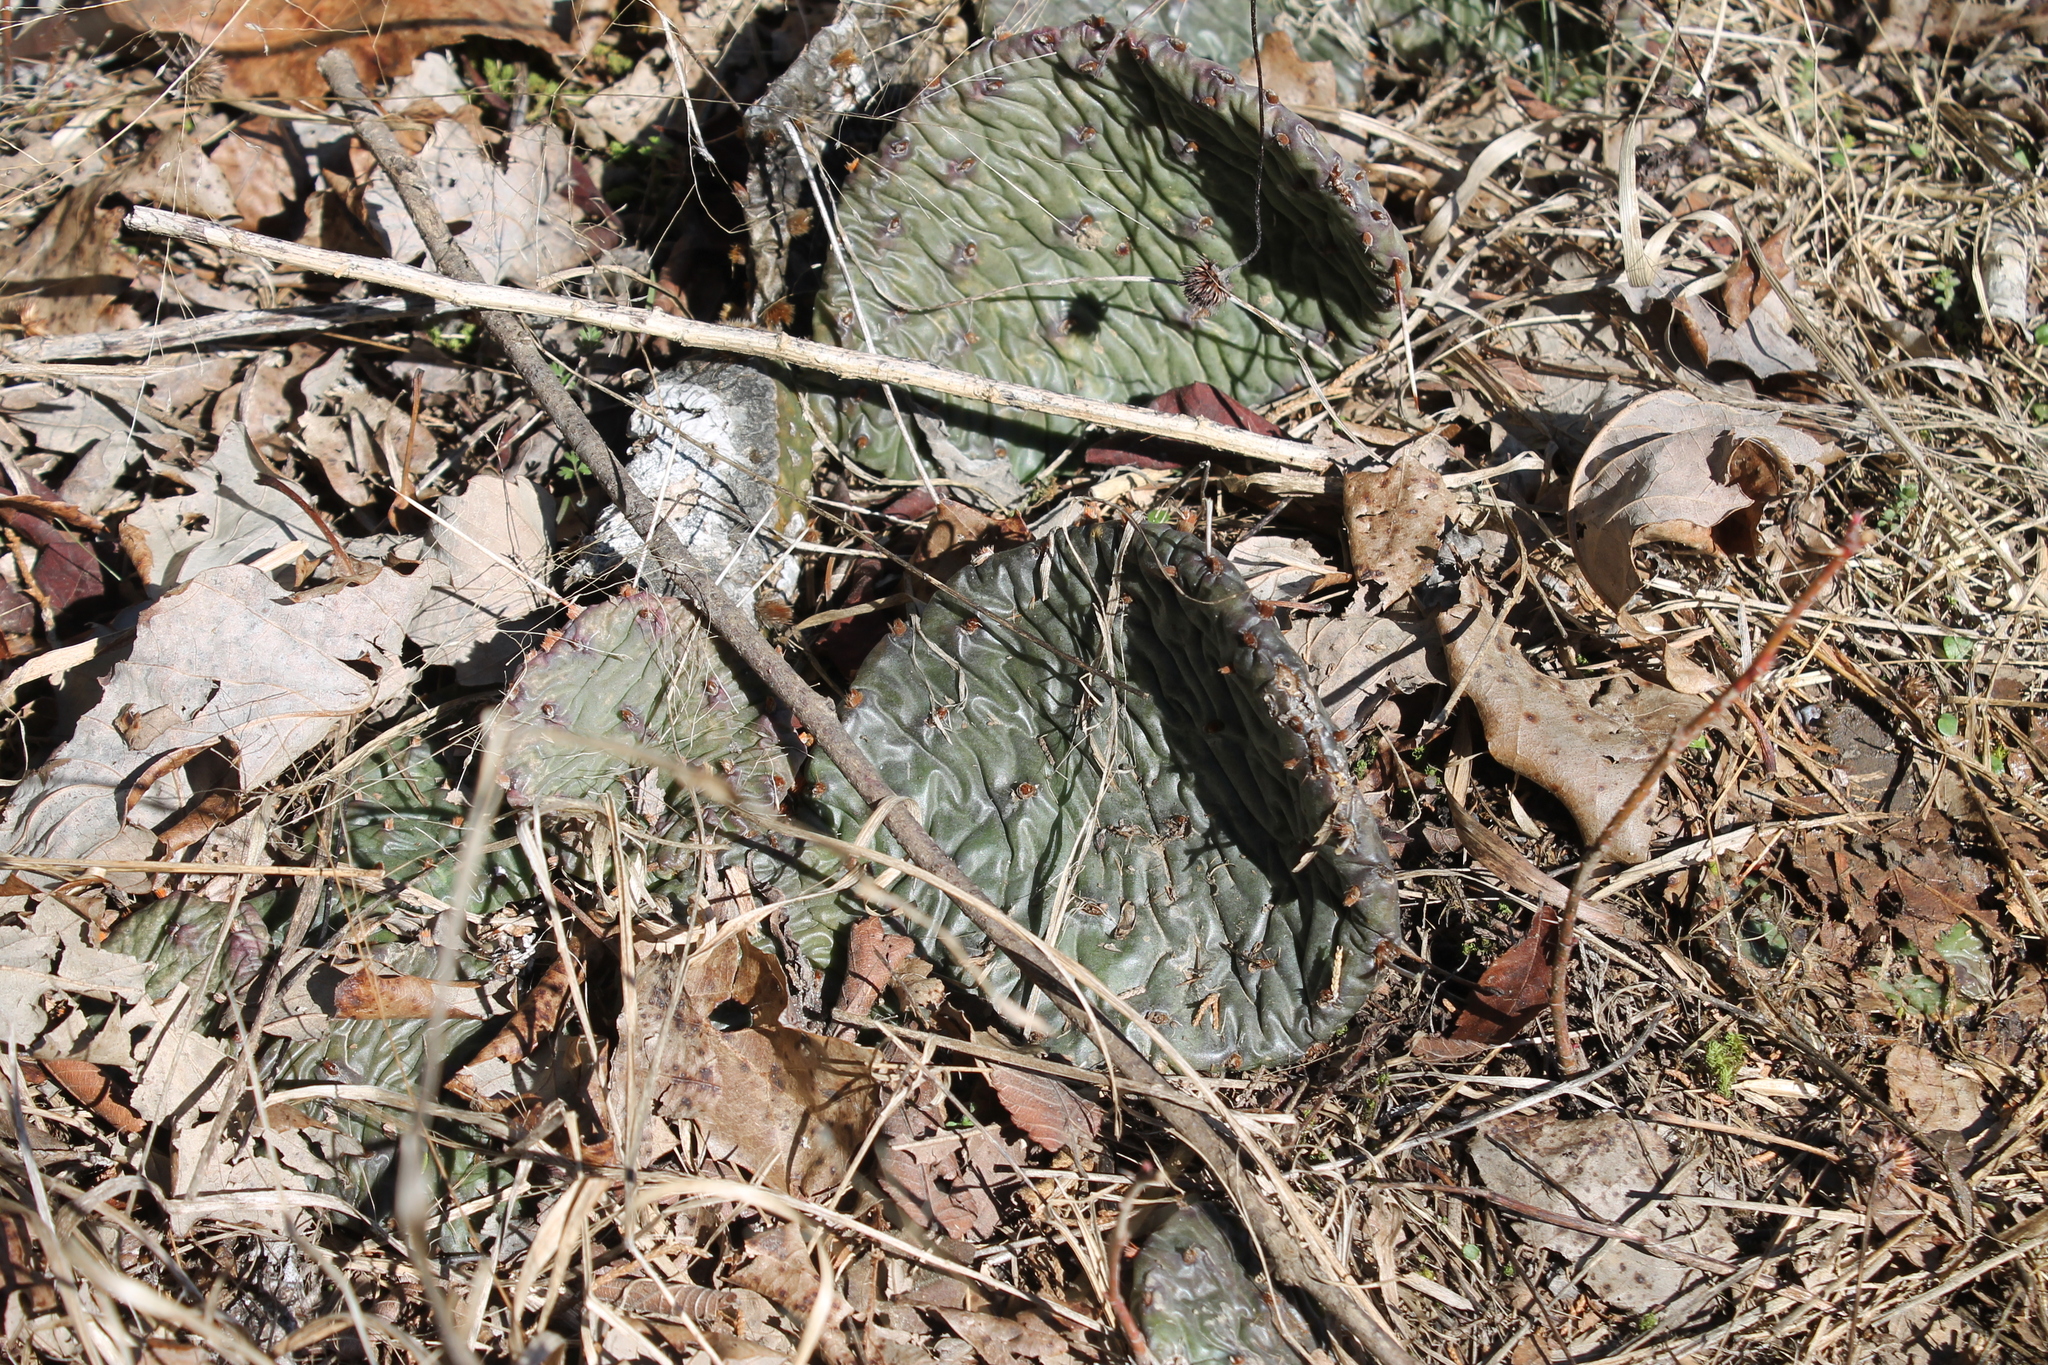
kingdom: Plantae
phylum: Tracheophyta
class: Magnoliopsida
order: Caryophyllales
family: Cactaceae
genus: Opuntia
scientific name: Opuntia humifusa
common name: Eastern prickly-pear
